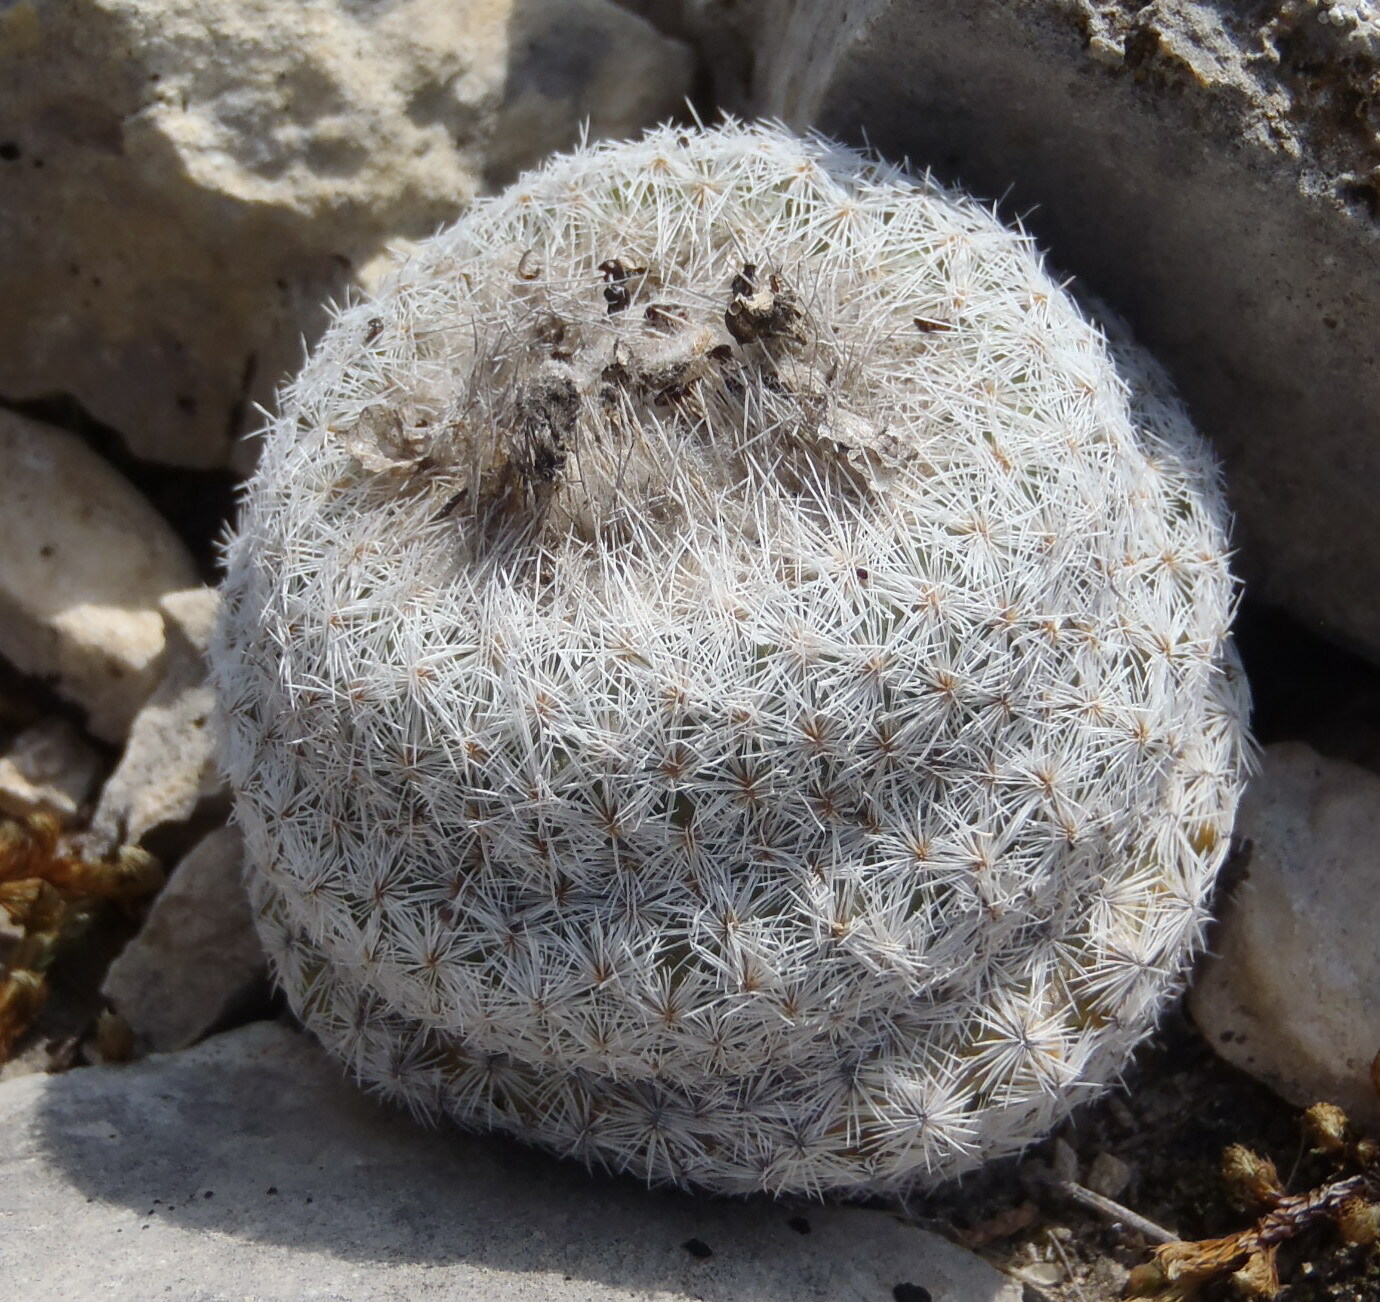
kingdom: Plantae
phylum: Tracheophyta
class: Magnoliopsida
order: Caryophyllales
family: Cactaceae
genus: Epithelantha
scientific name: Epithelantha micromeris
